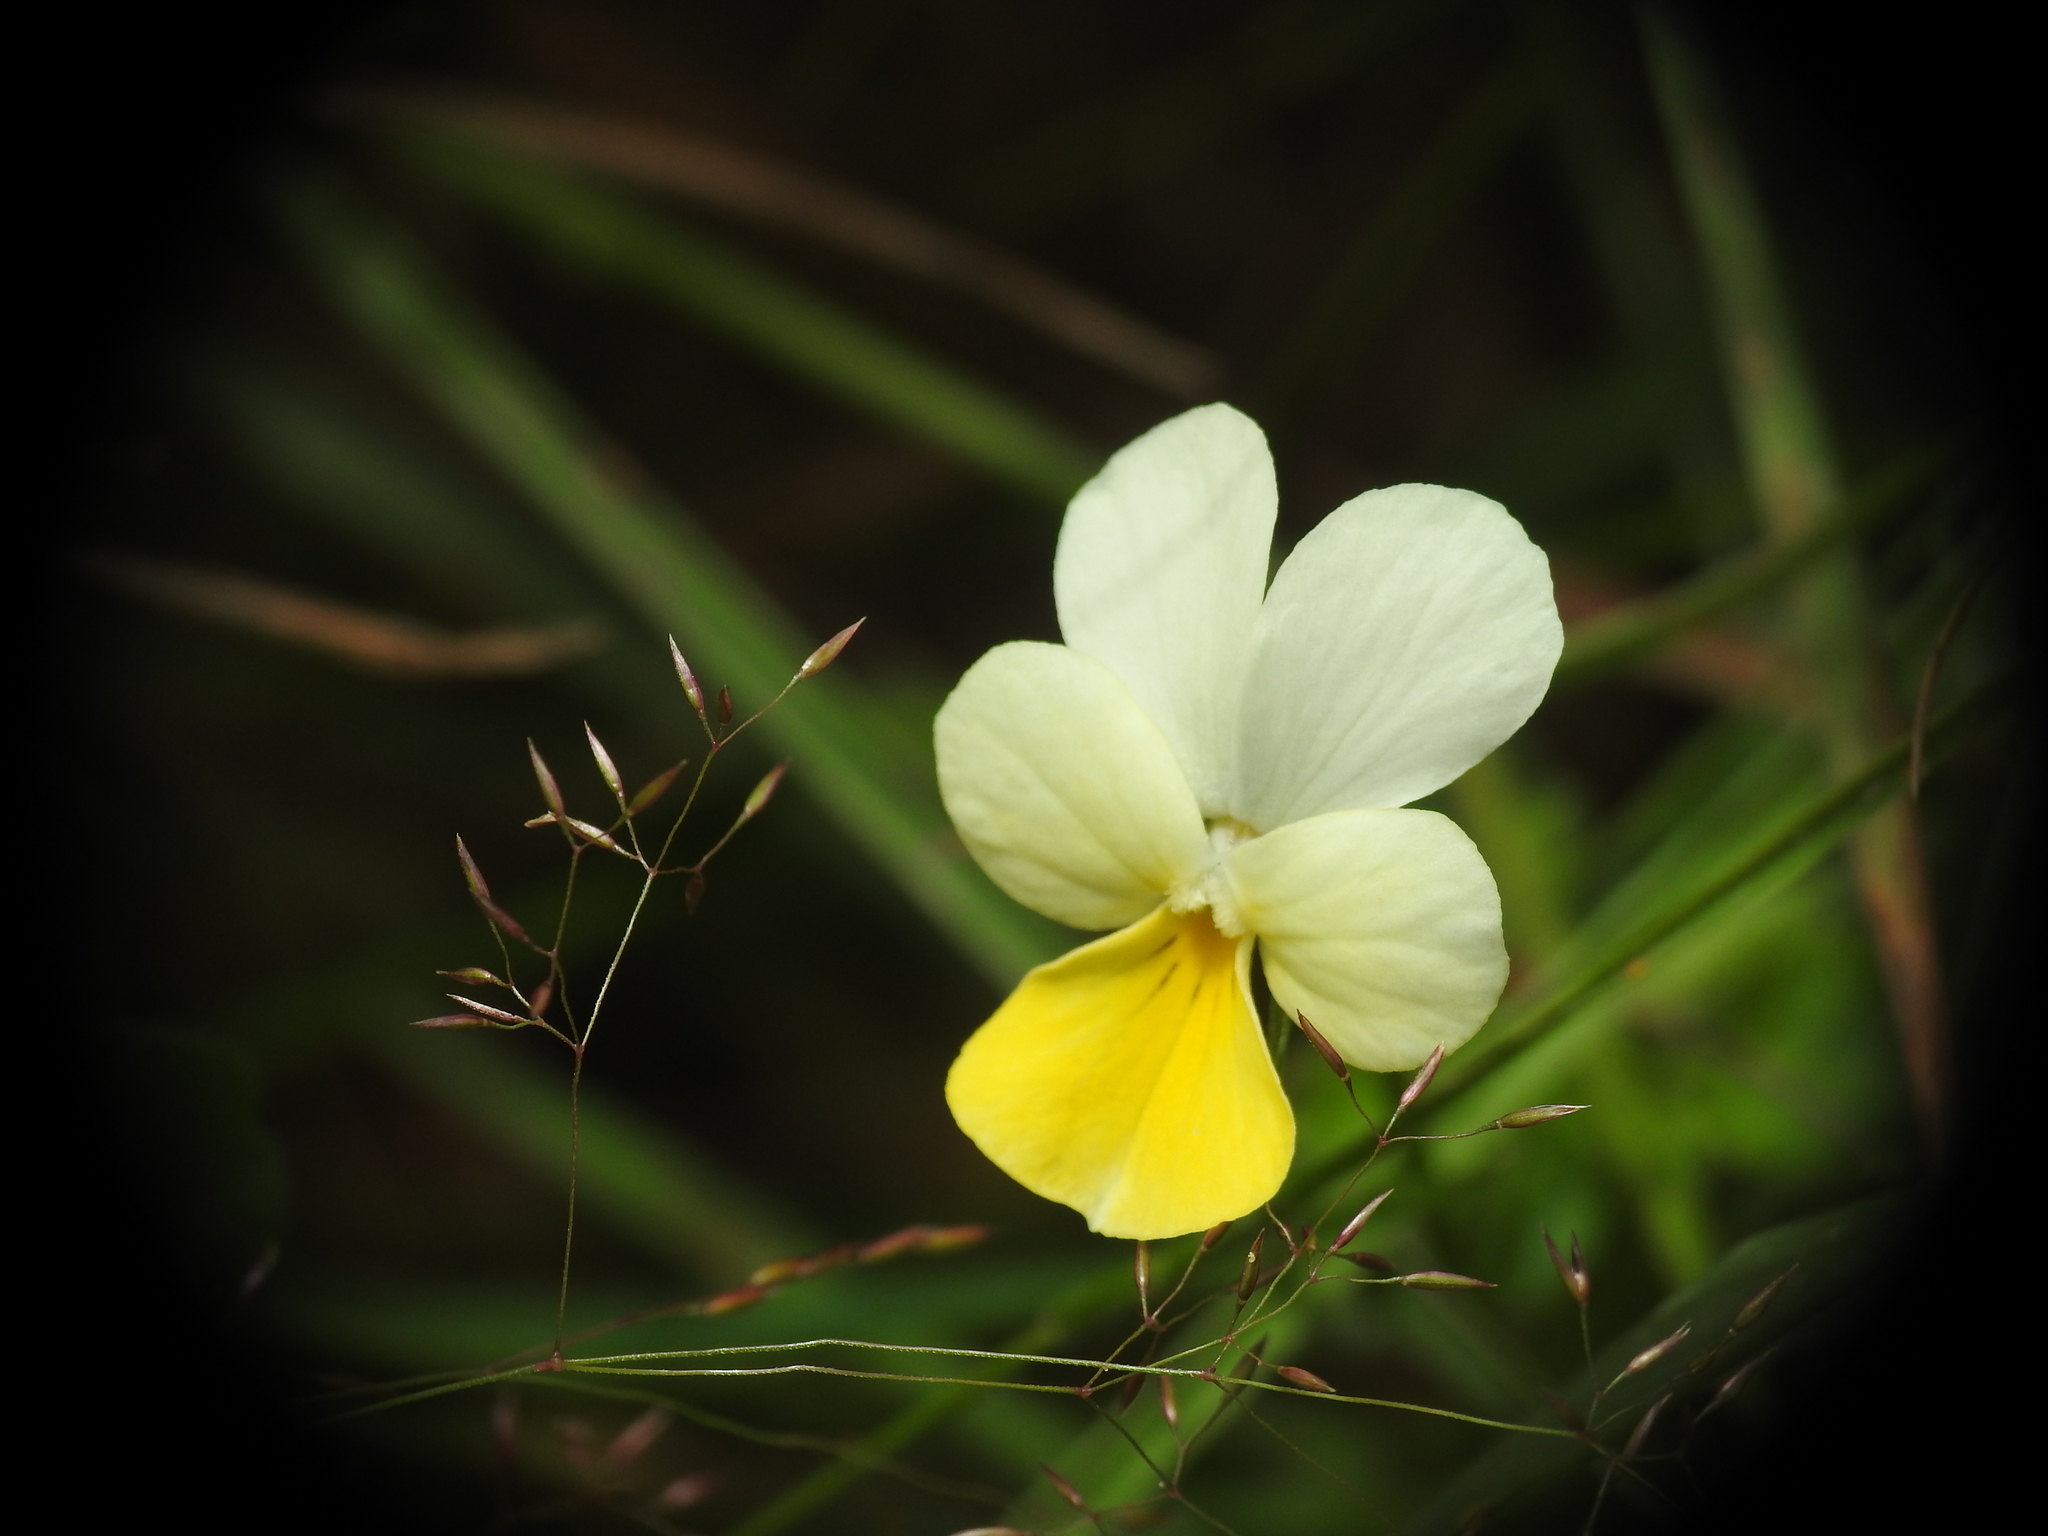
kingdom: Plantae
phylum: Tracheophyta
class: Magnoliopsida
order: Malpighiales
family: Violaceae
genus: Viola
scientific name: Viola tricolor
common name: Pansy
